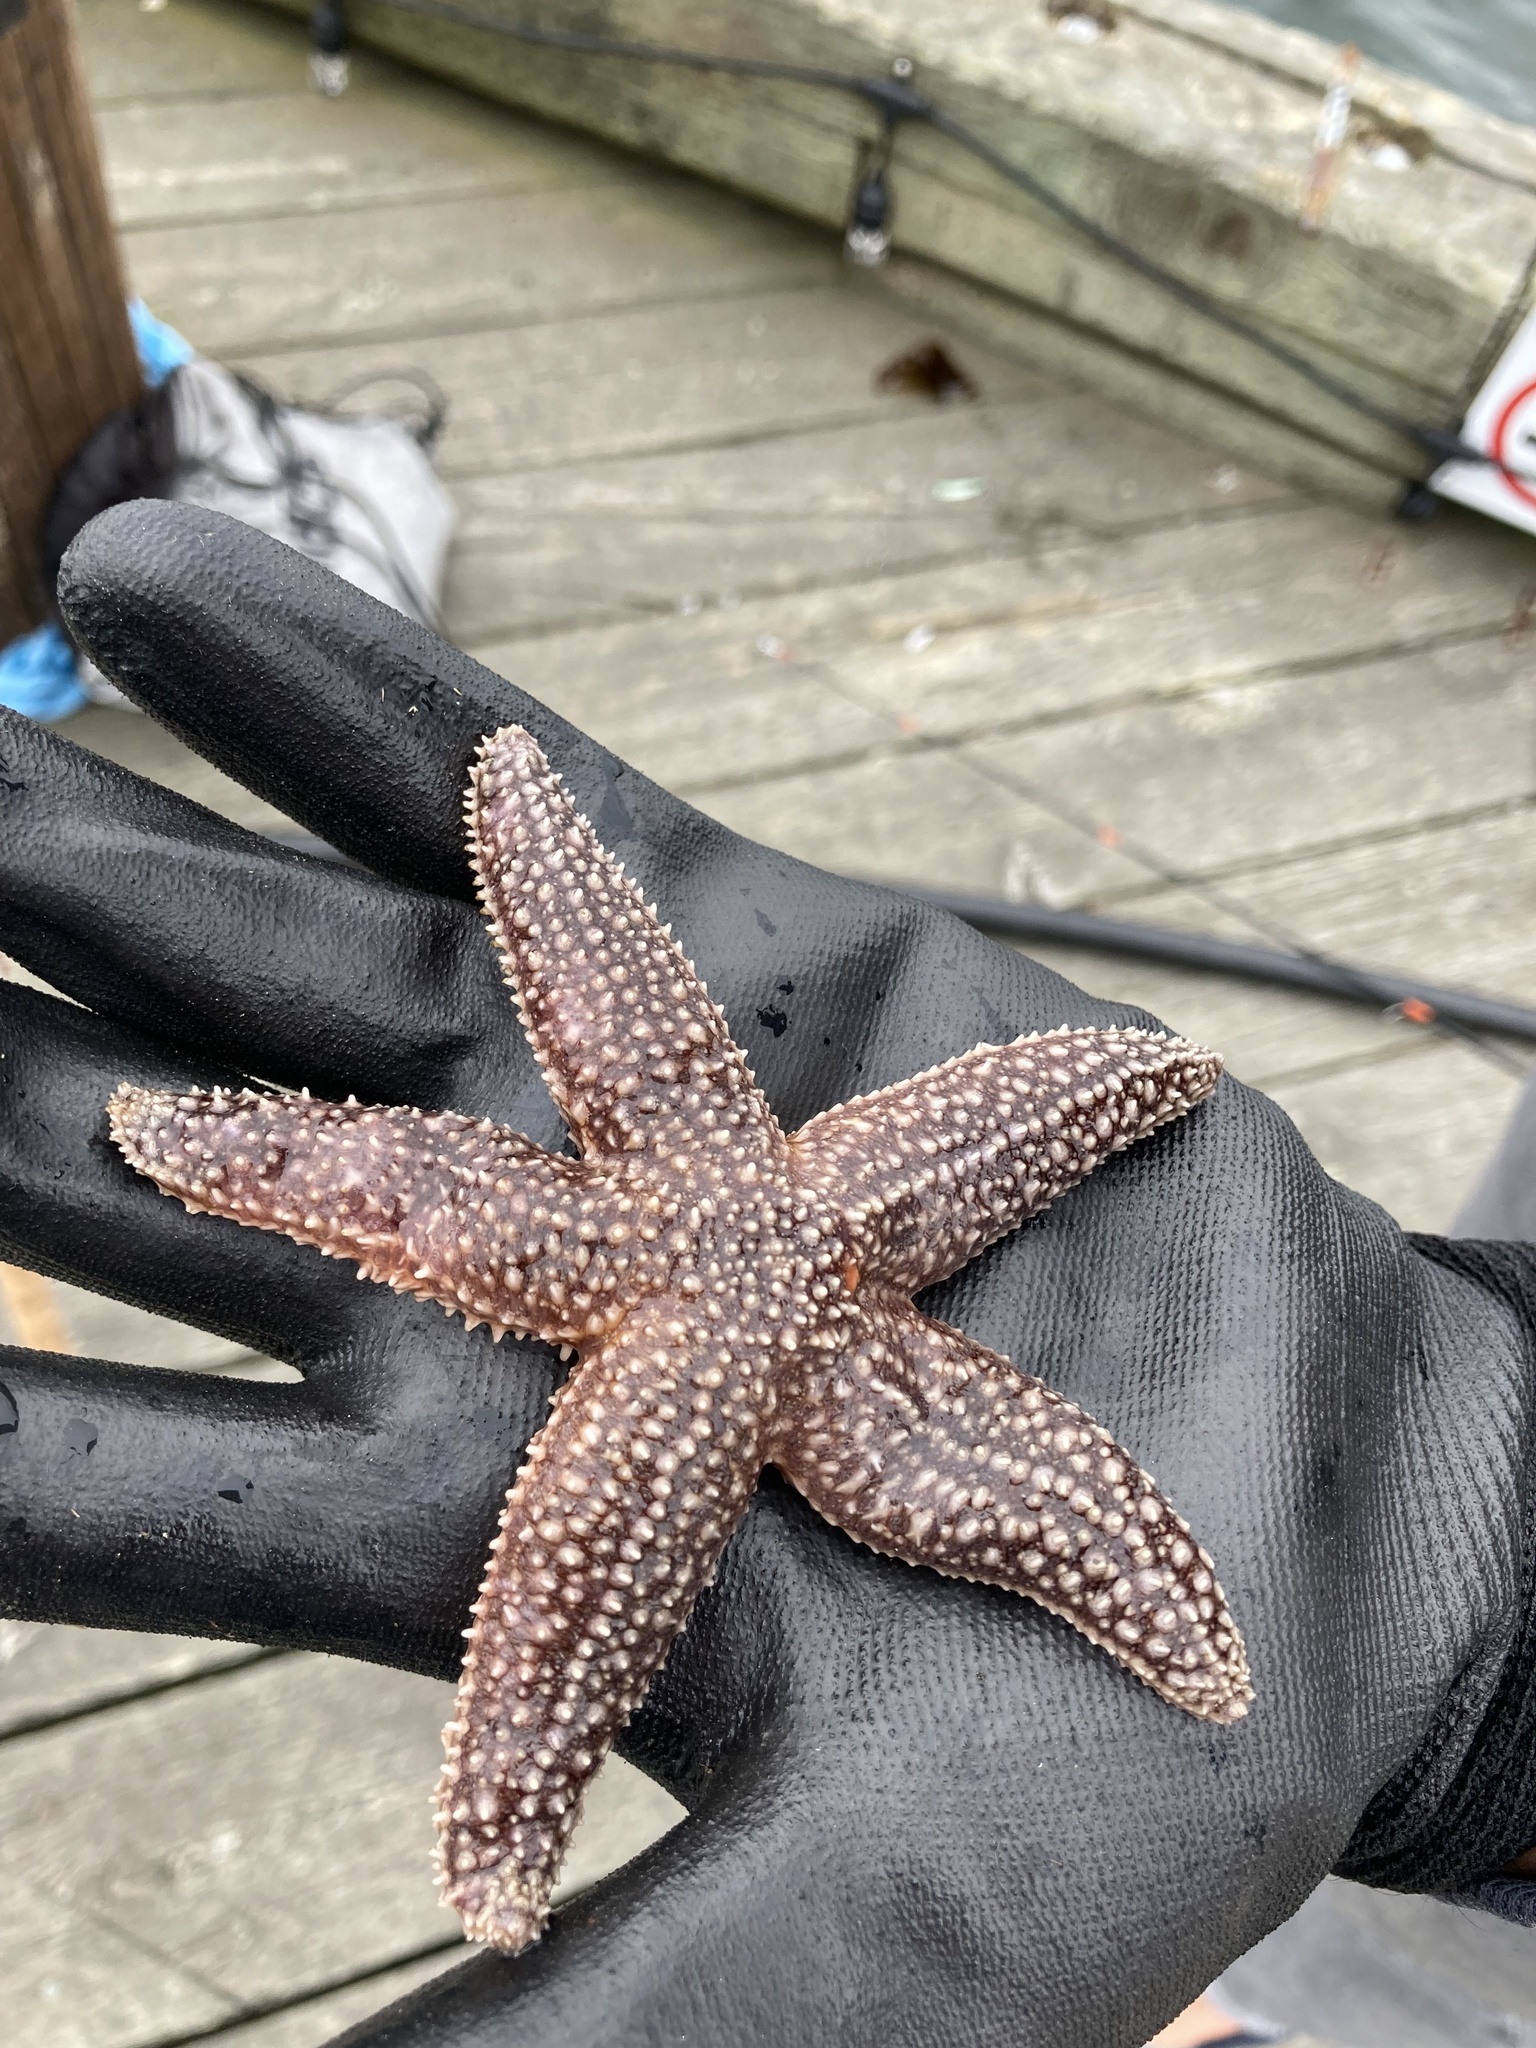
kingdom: Animalia
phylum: Echinodermata
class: Asteroidea
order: Forcipulatida
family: Asteriidae
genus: Asterias
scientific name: Asterias forbesi
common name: Forbes's sea star
